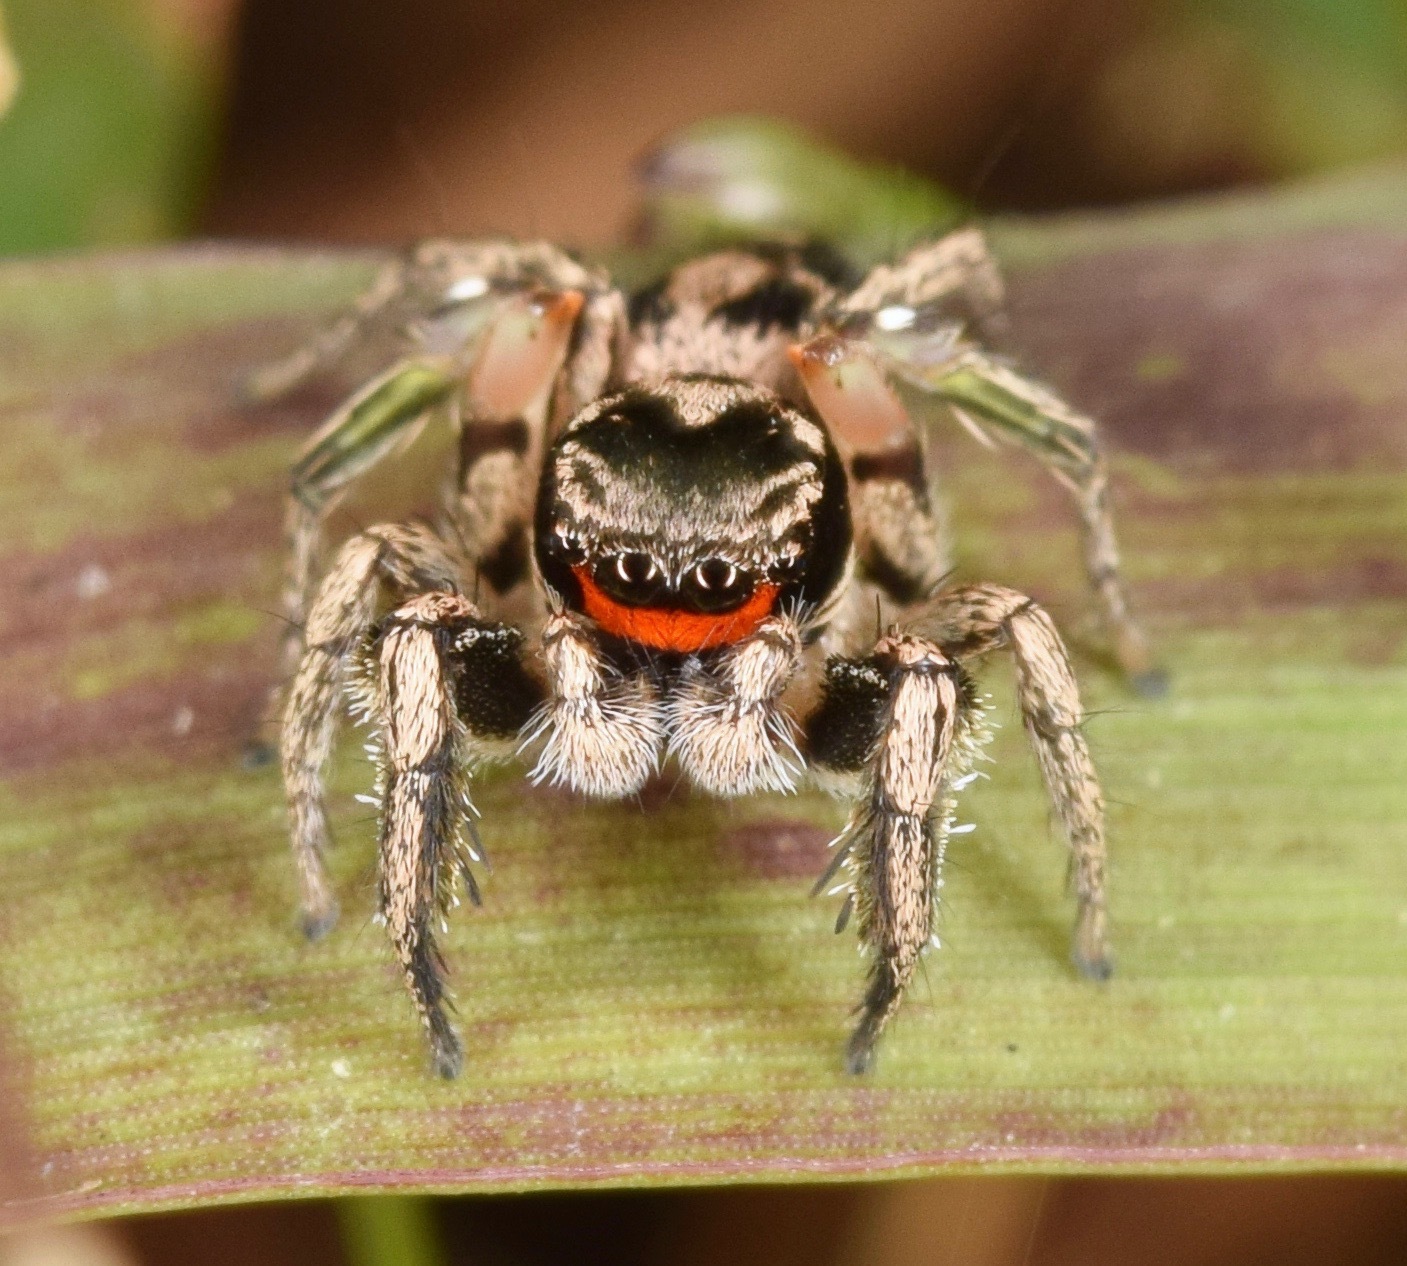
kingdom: Animalia
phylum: Arthropoda
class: Arachnida
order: Araneae
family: Salticidae
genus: Habronattus
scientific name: Habronattus coecatus
